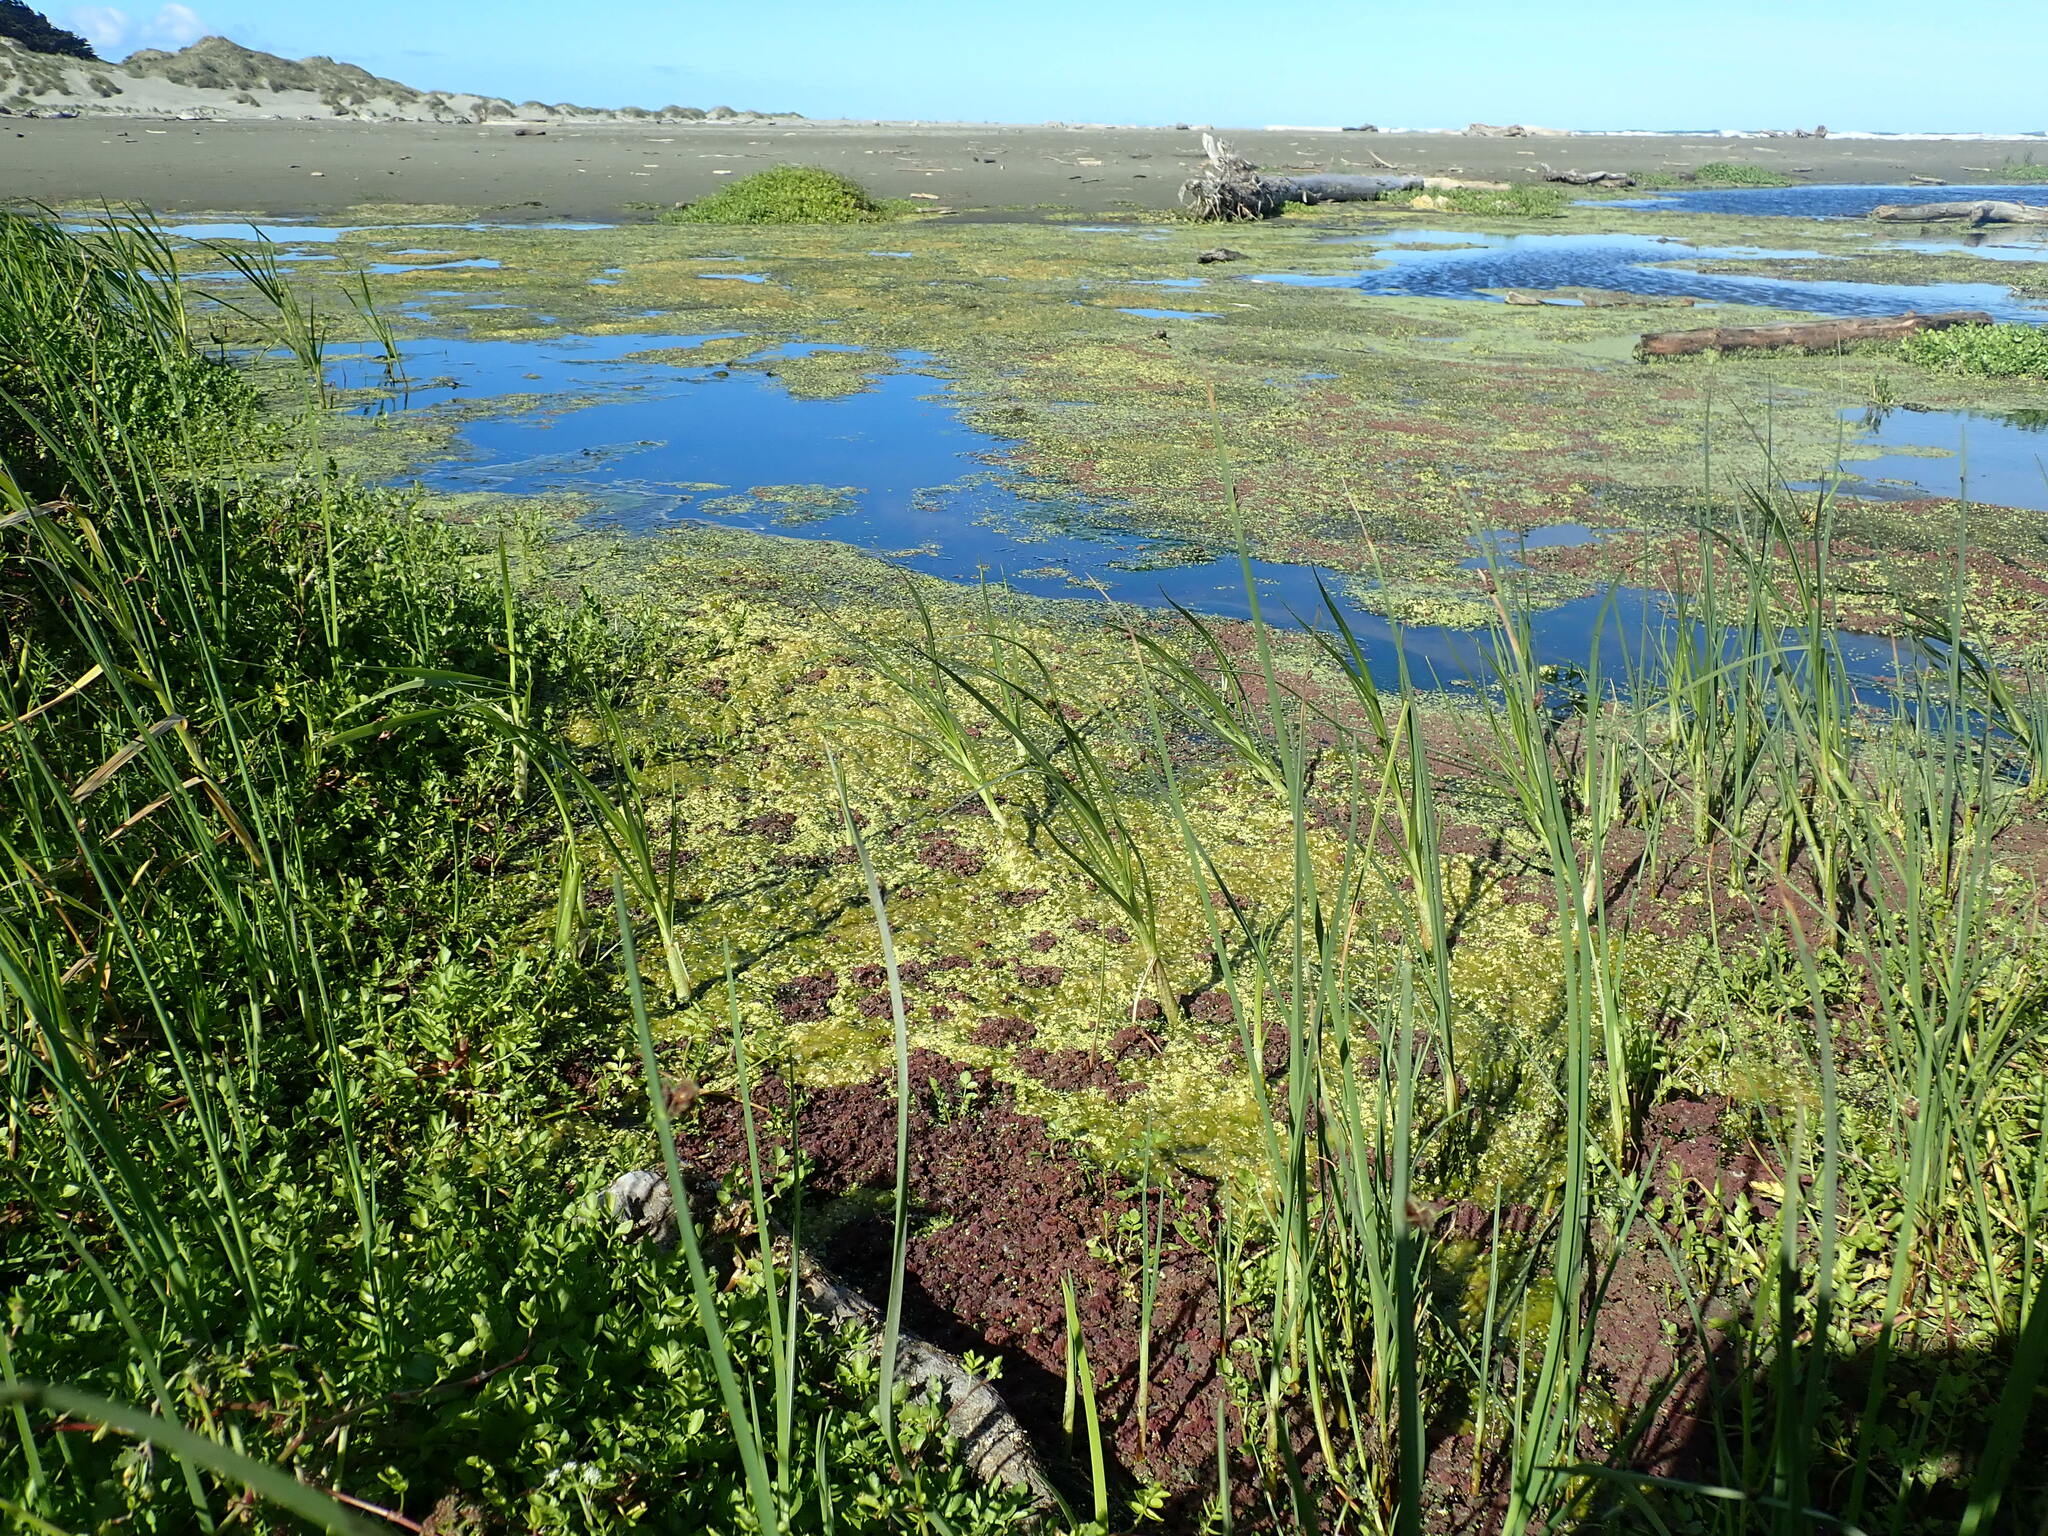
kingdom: Plantae
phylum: Tracheophyta
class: Polypodiopsida
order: Salviniales
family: Salviniaceae
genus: Azolla
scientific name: Azolla rubra
